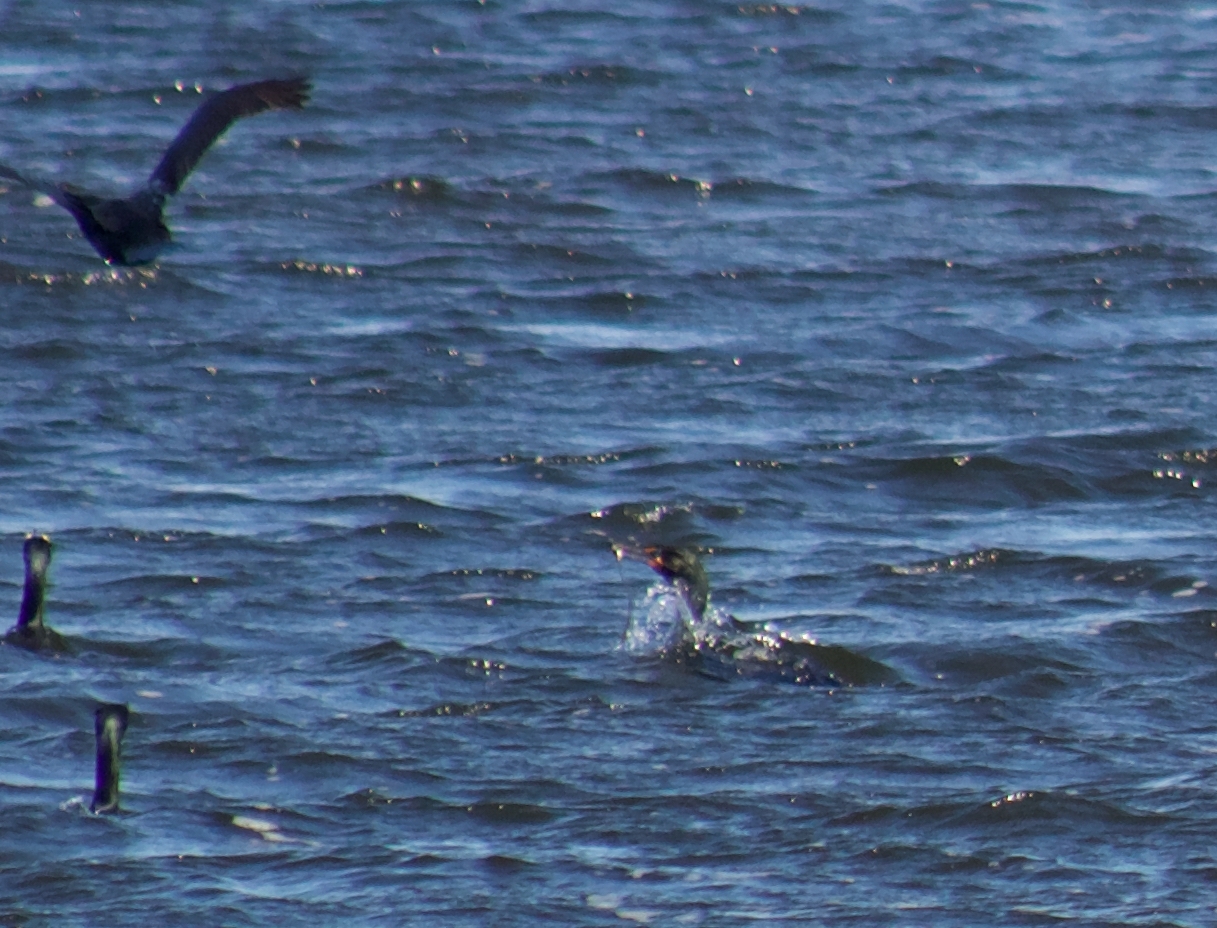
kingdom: Animalia
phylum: Chordata
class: Aves
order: Suliformes
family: Phalacrocoracidae
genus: Phalacrocorax
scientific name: Phalacrocorax auritus
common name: Double-crested cormorant
